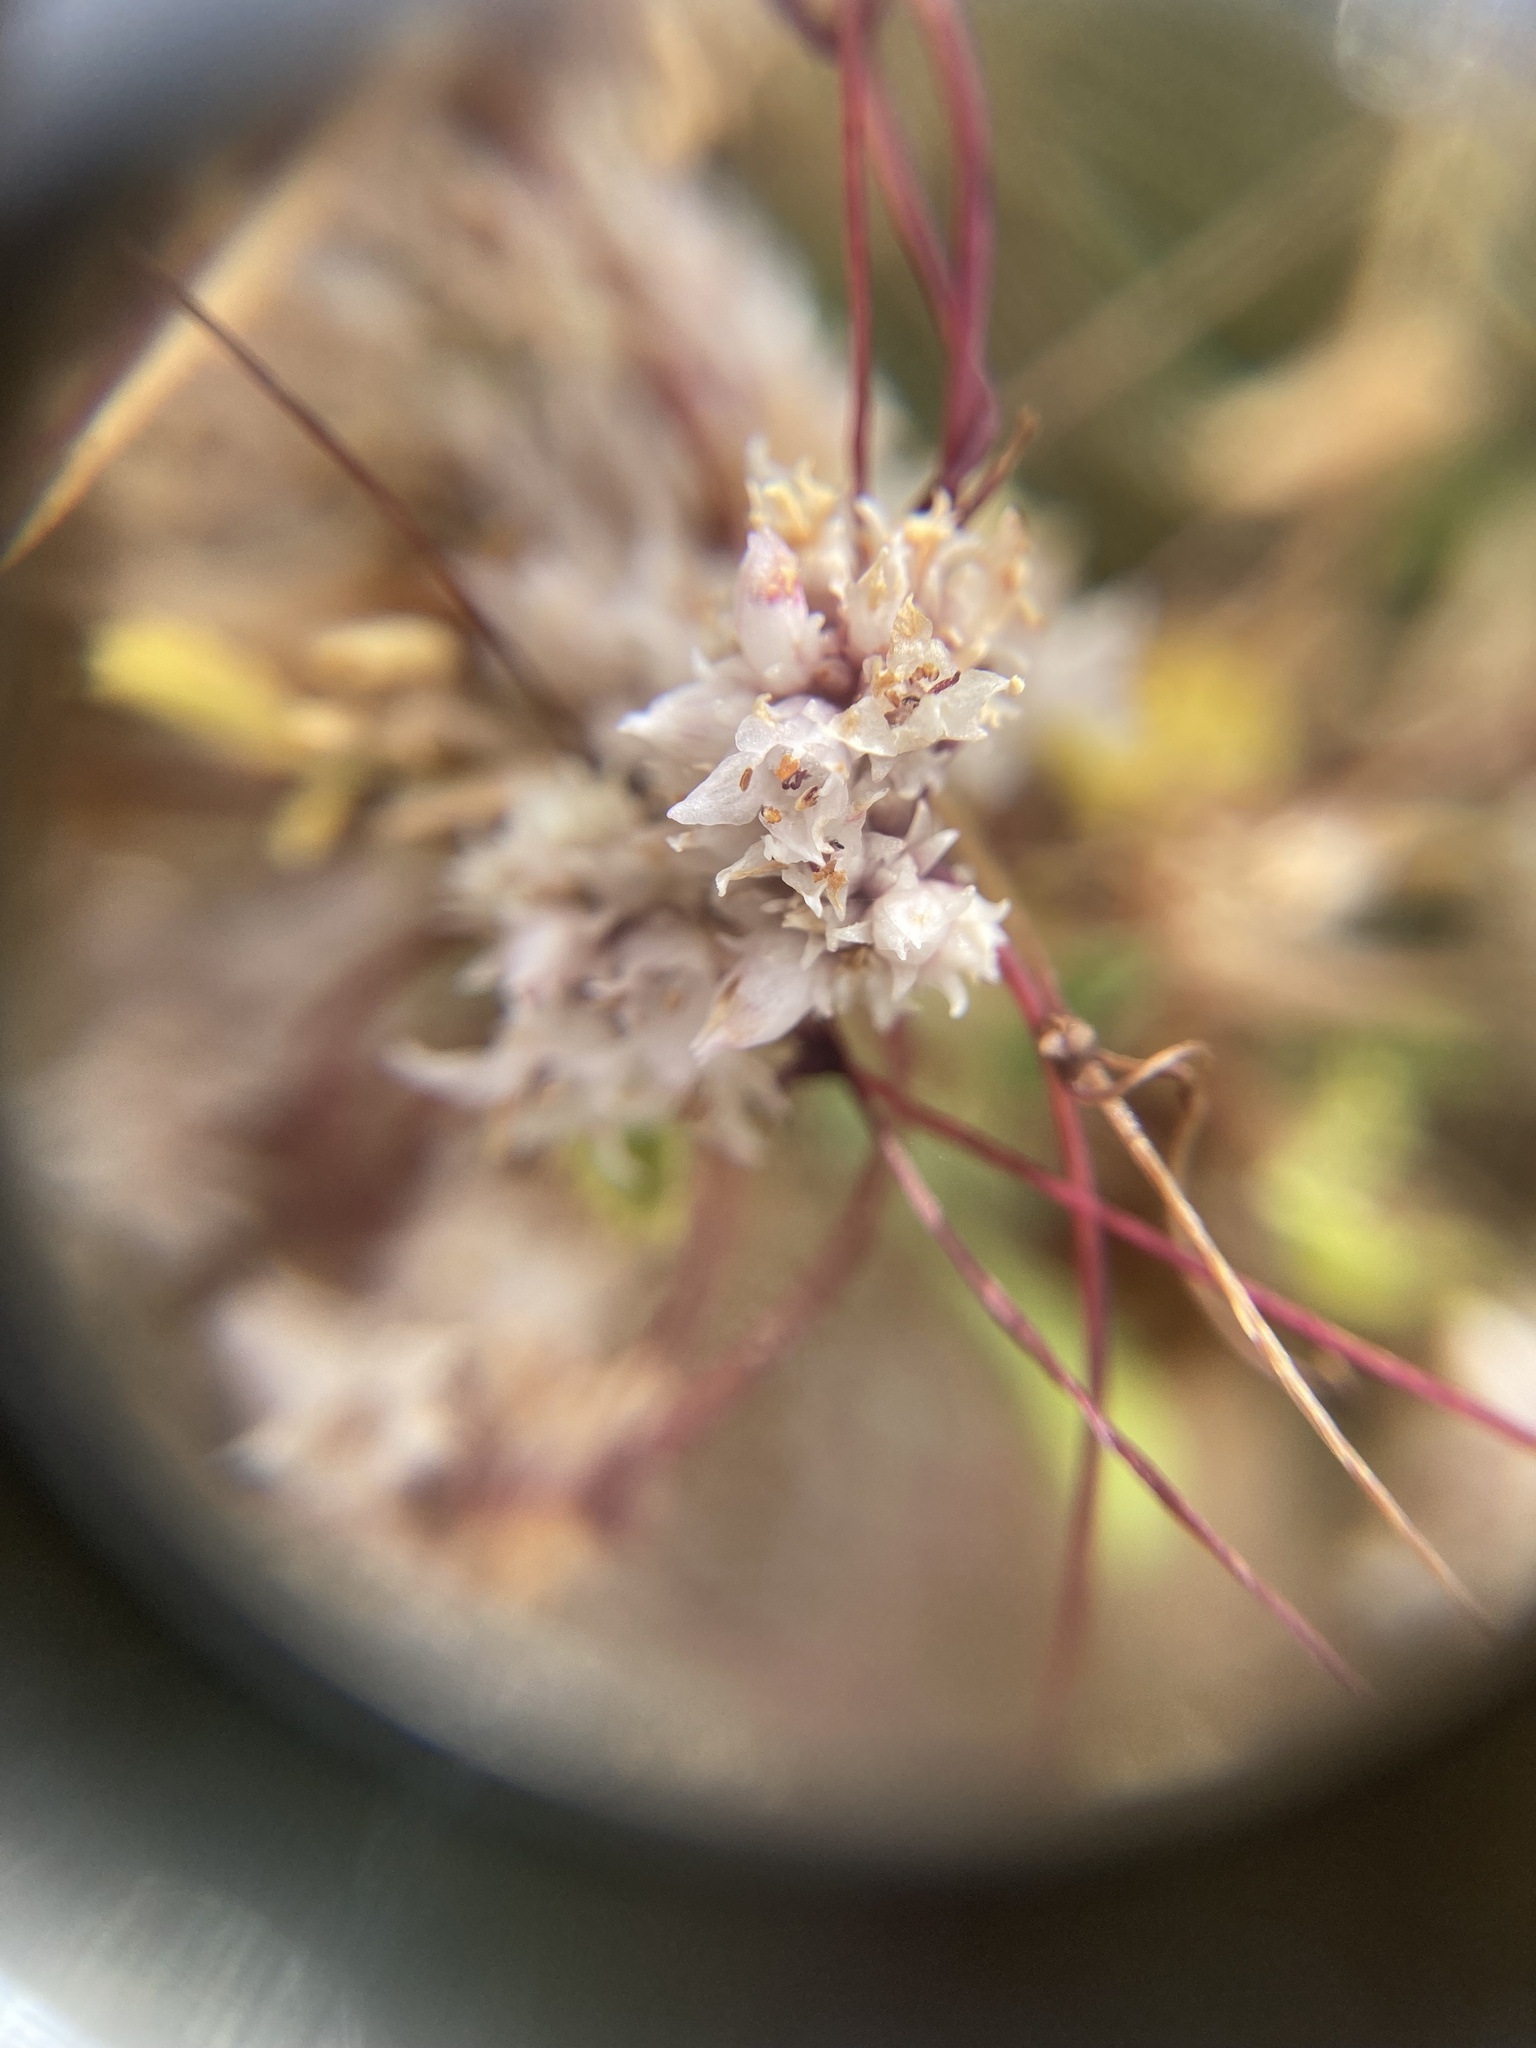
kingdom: Plantae
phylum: Tracheophyta
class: Magnoliopsida
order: Solanales
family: Convolvulaceae
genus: Cuscuta
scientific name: Cuscuta epithymum
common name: Clover dodder
